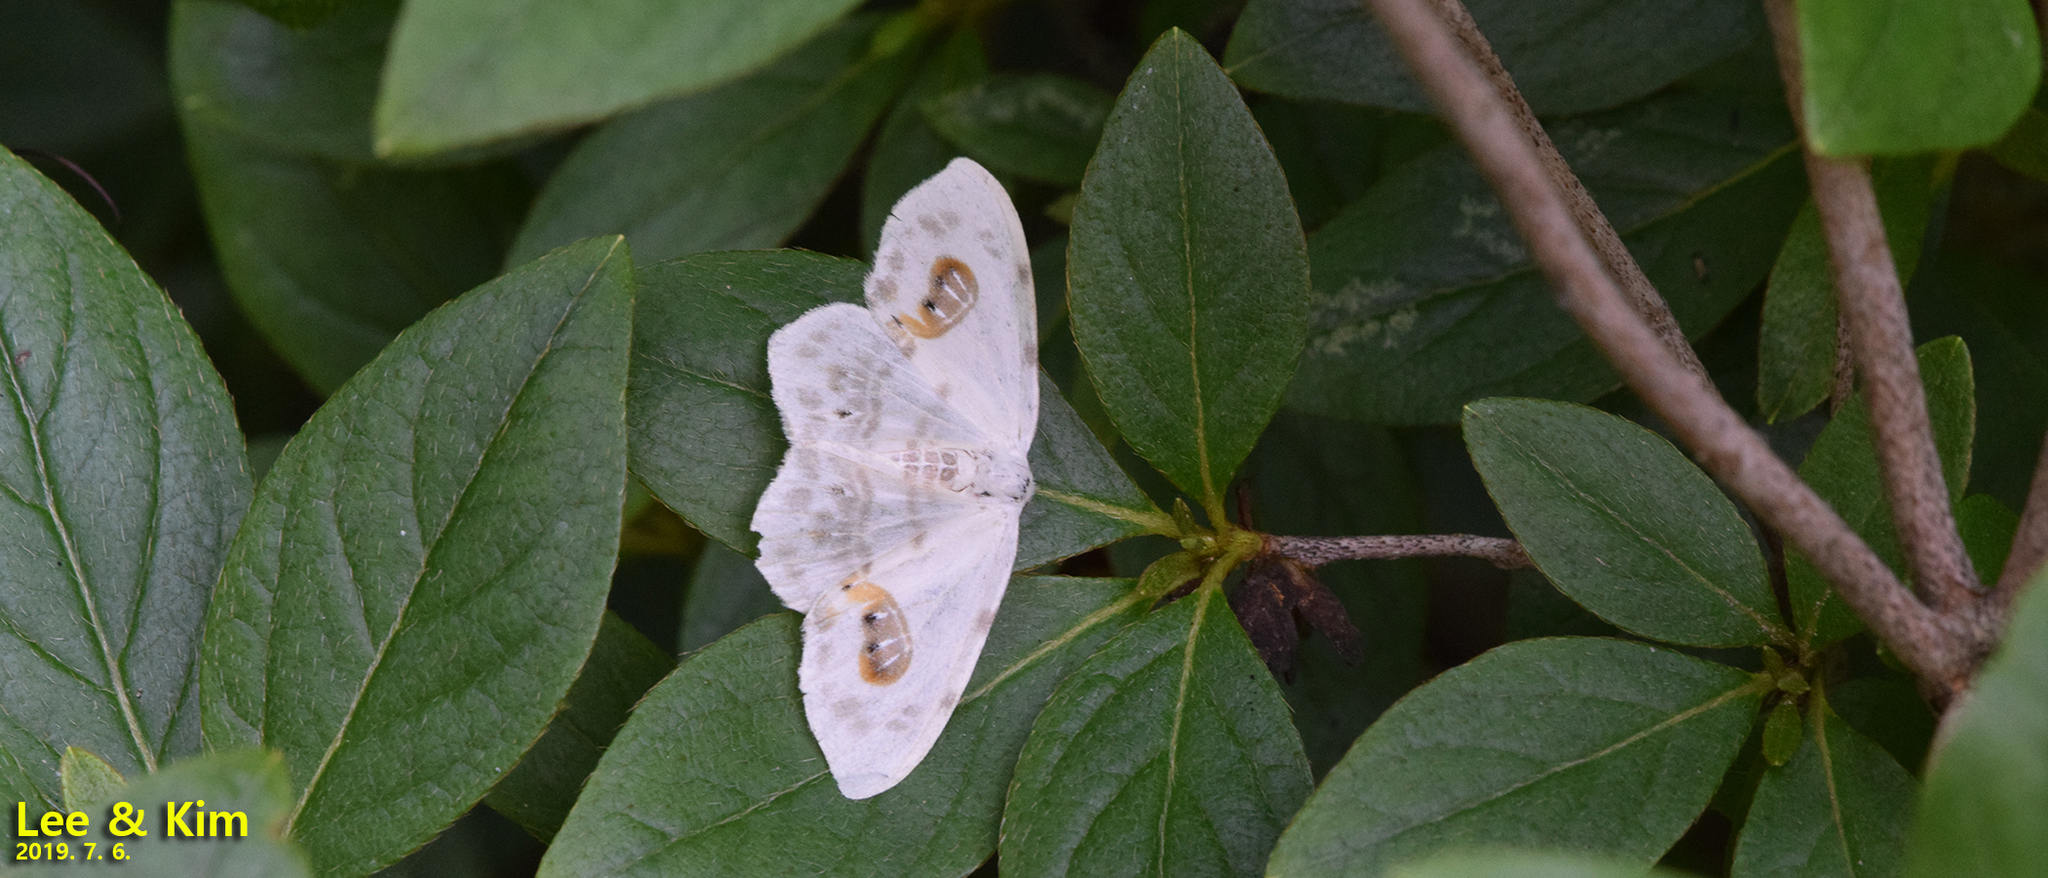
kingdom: Animalia
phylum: Arthropoda
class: Insecta
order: Lepidoptera
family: Drepanidae
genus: Auzata
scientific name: Auzata superba
